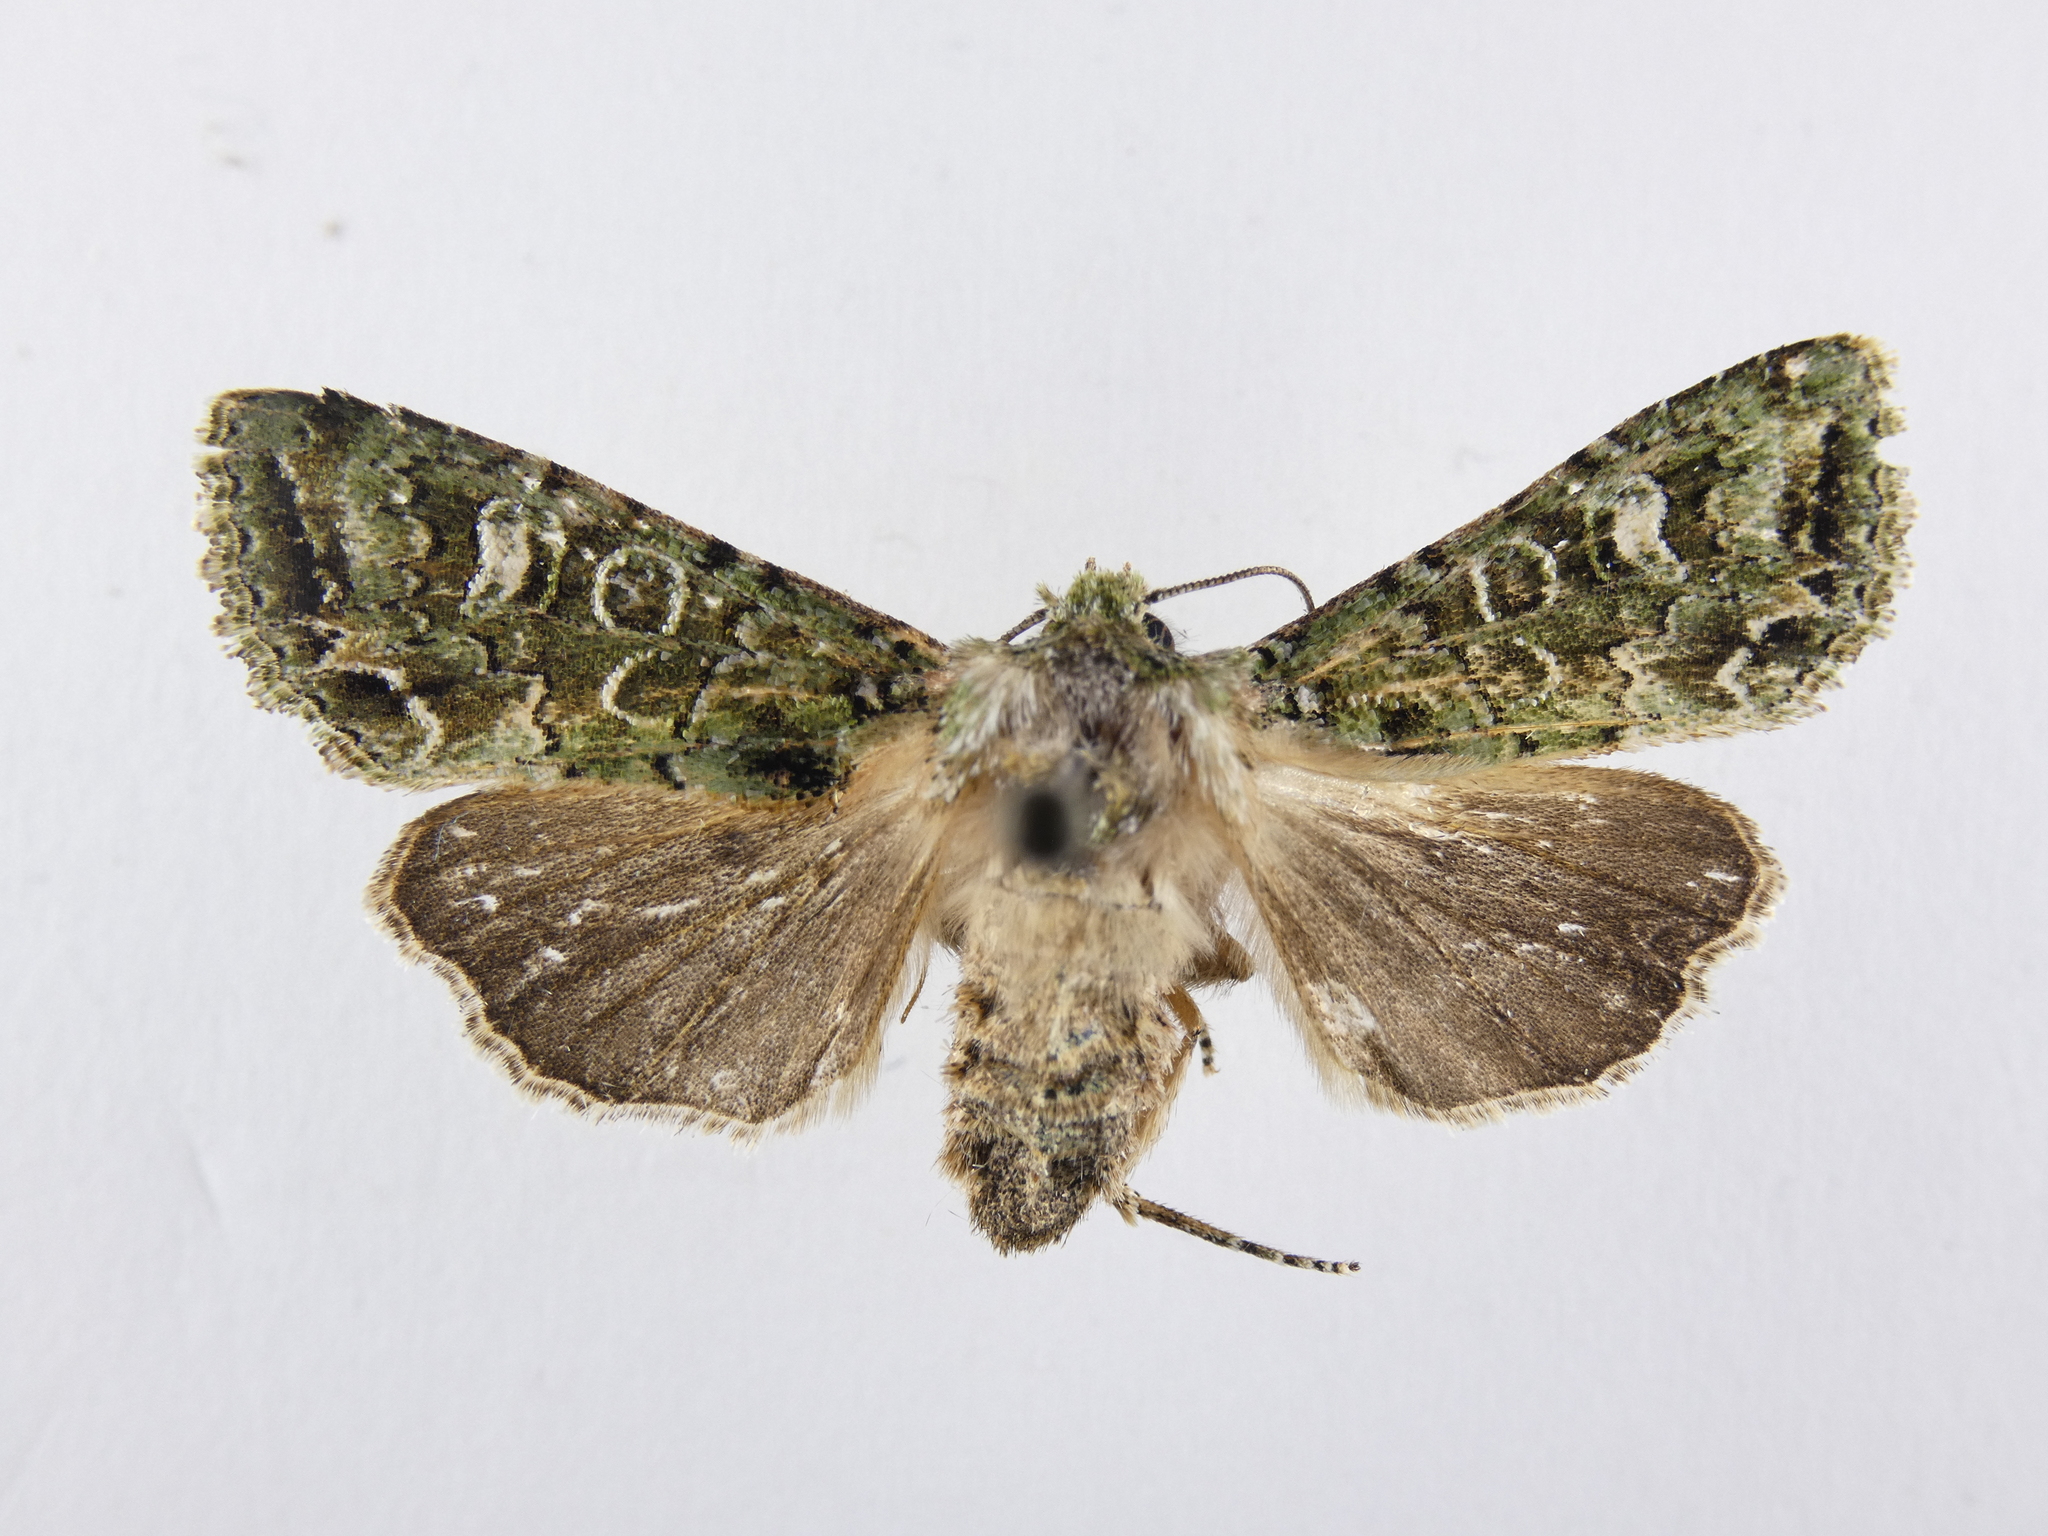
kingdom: Animalia
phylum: Arthropoda
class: Insecta
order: Lepidoptera
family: Noctuidae
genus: Ichneutica
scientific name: Ichneutica
